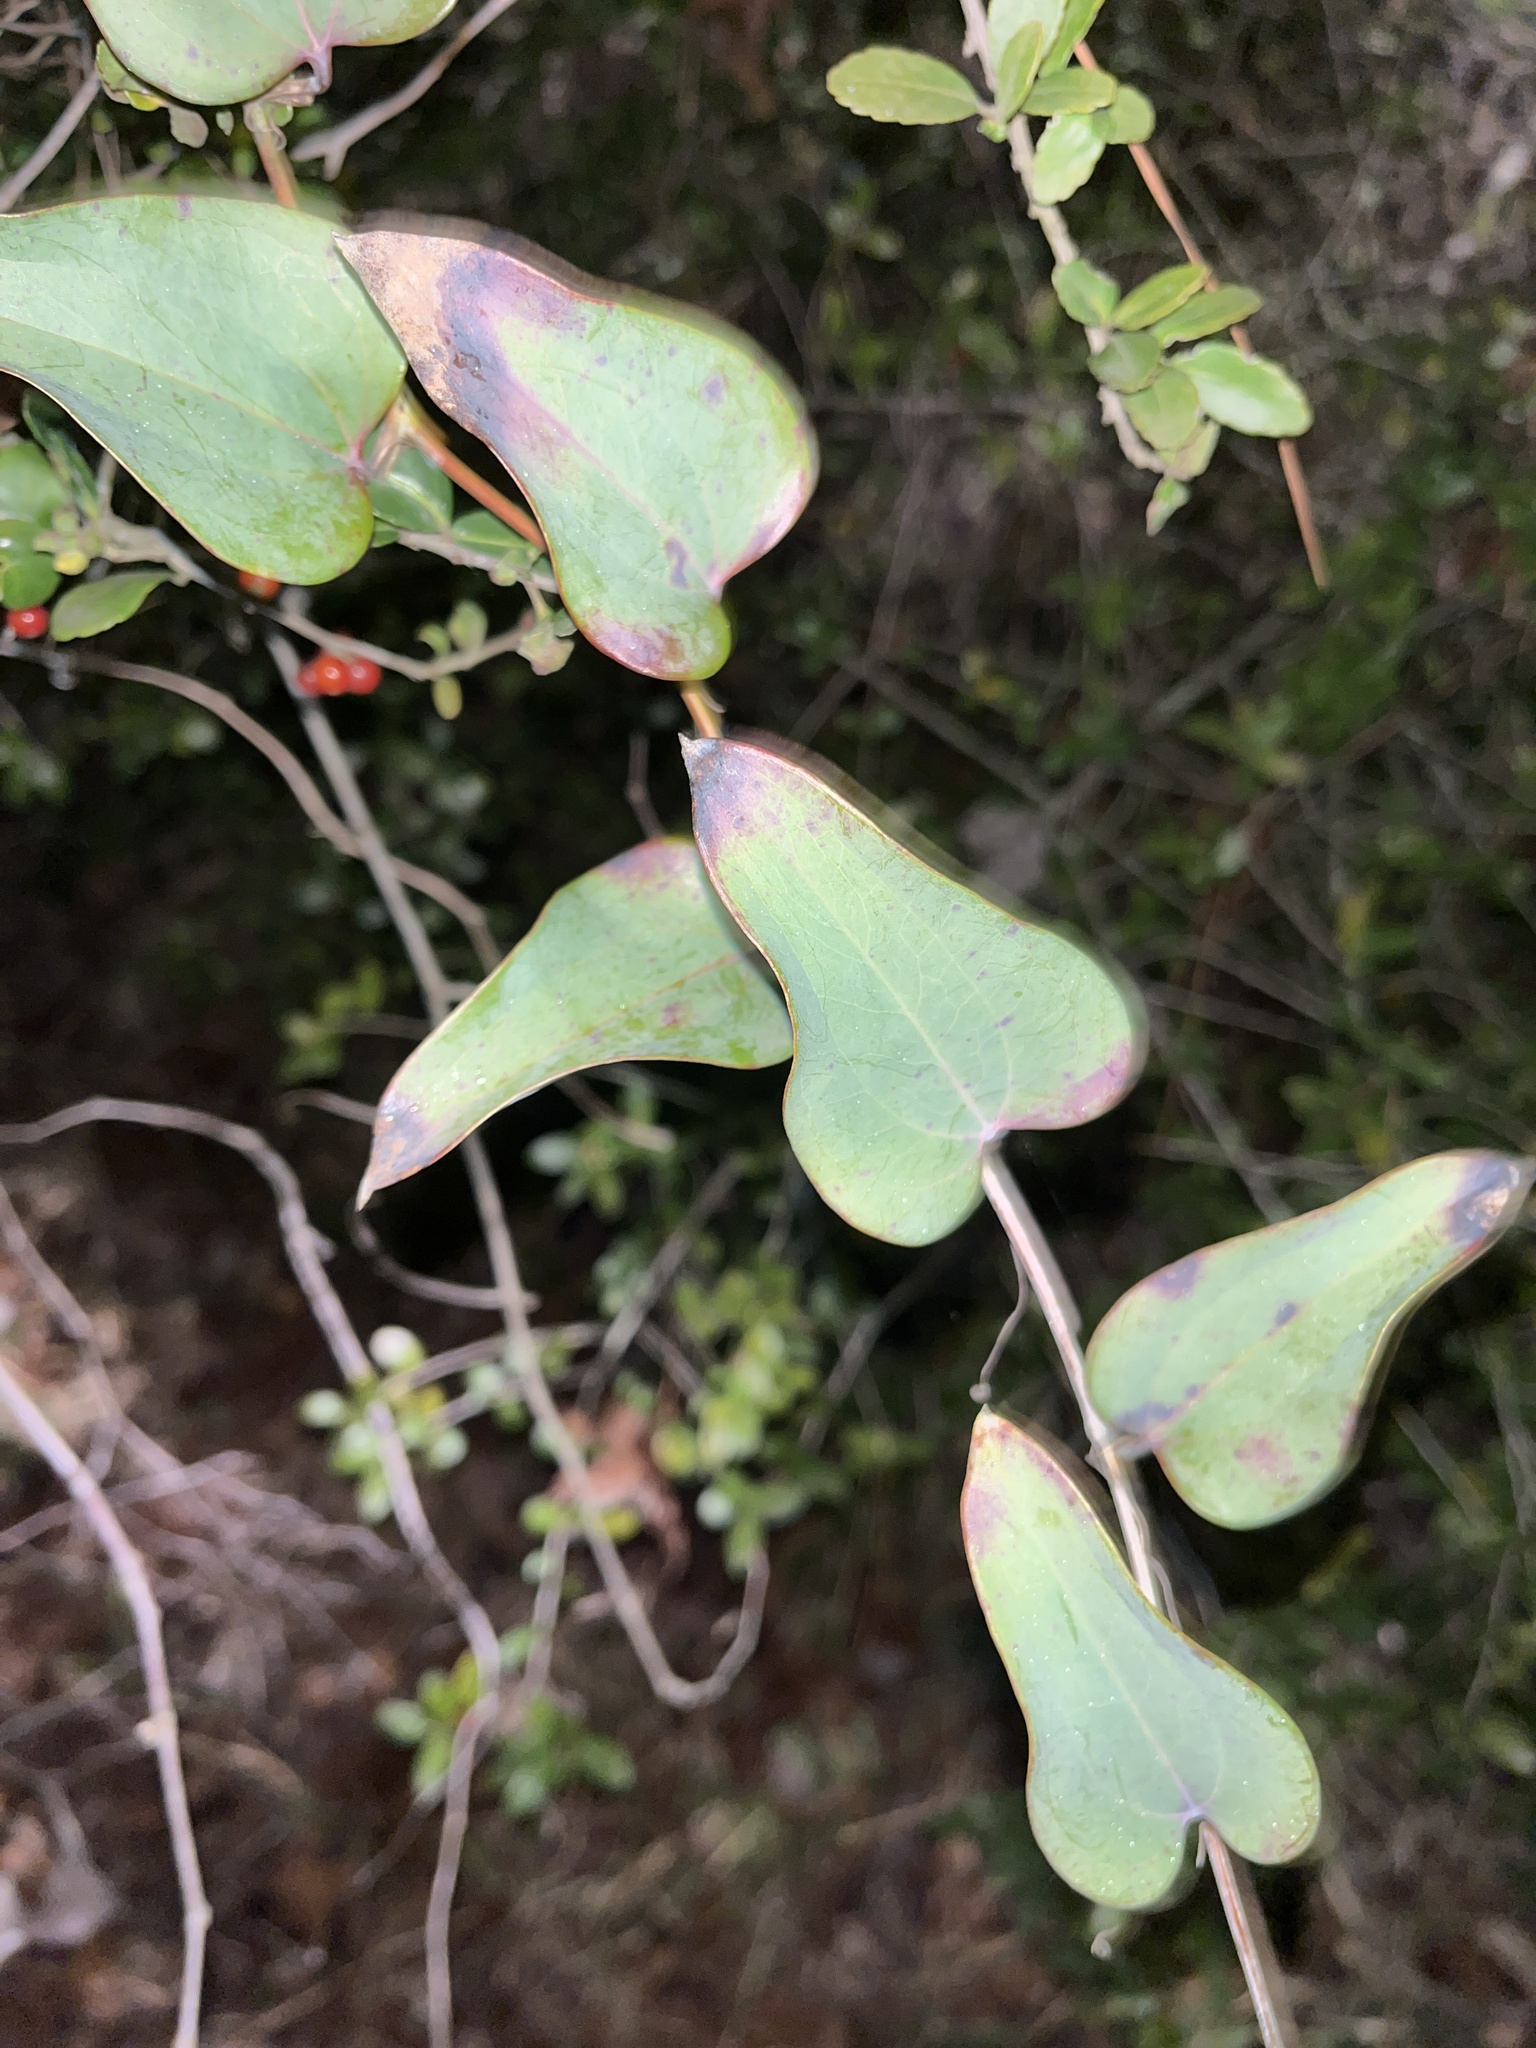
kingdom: Plantae
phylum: Tracheophyta
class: Liliopsida
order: Liliales
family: Smilacaceae
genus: Smilax
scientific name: Smilax bona-nox
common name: Catbrier
